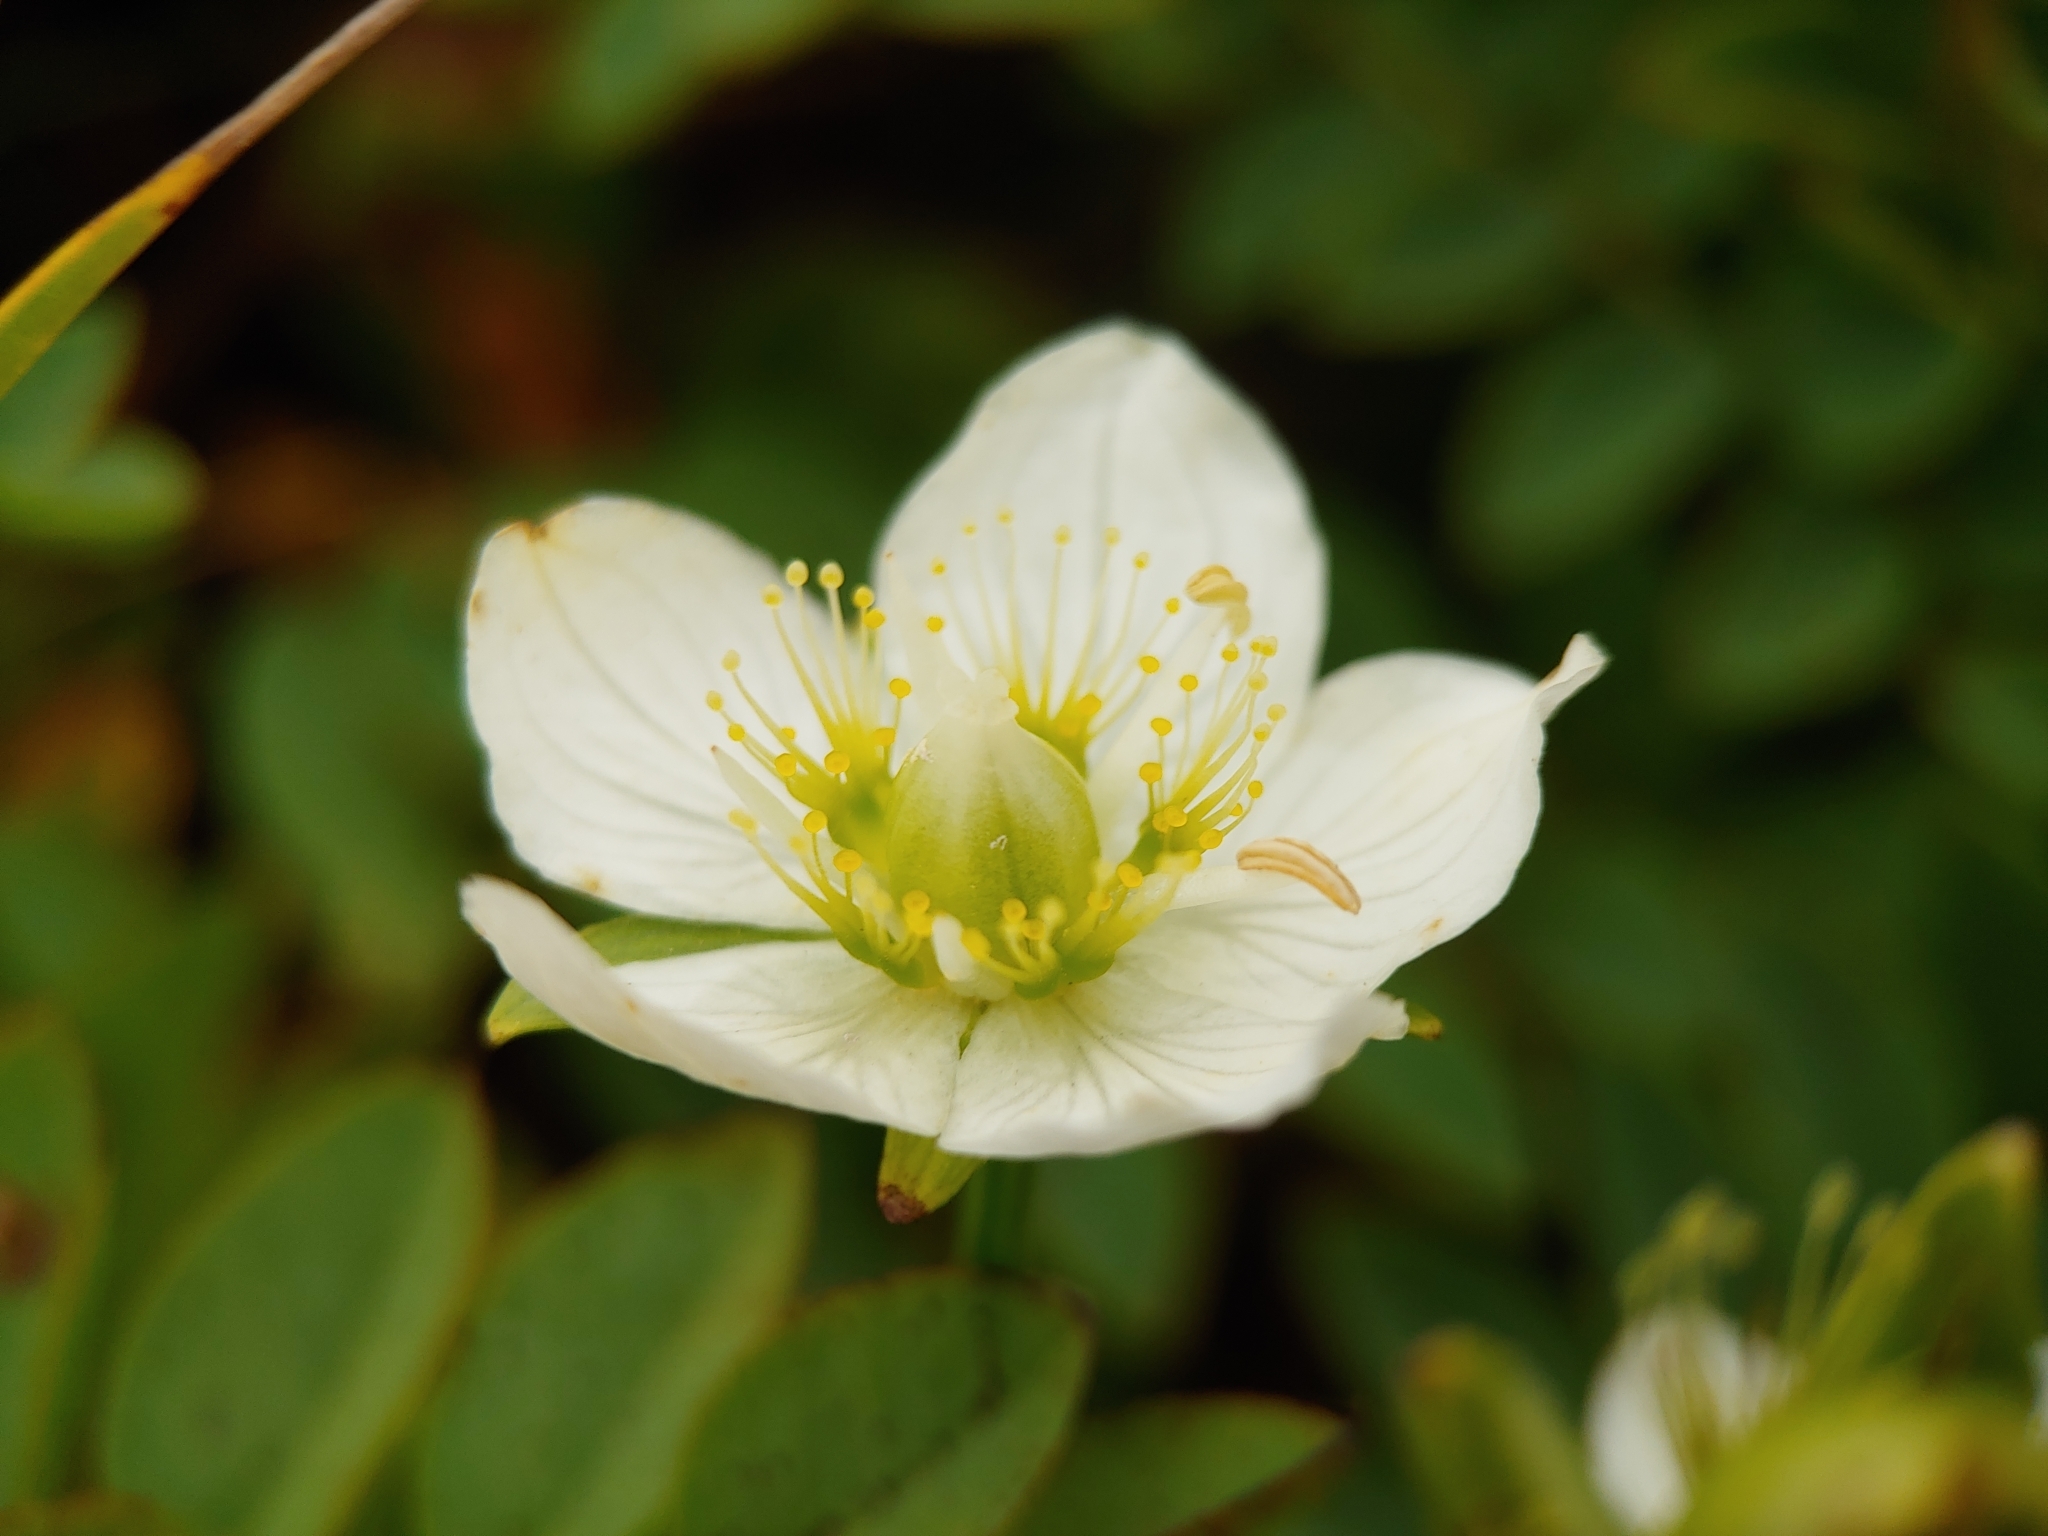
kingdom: Plantae
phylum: Tracheophyta
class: Magnoliopsida
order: Celastrales
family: Parnassiaceae
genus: Parnassia
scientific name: Parnassia palustris
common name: Grass-of-parnassus
